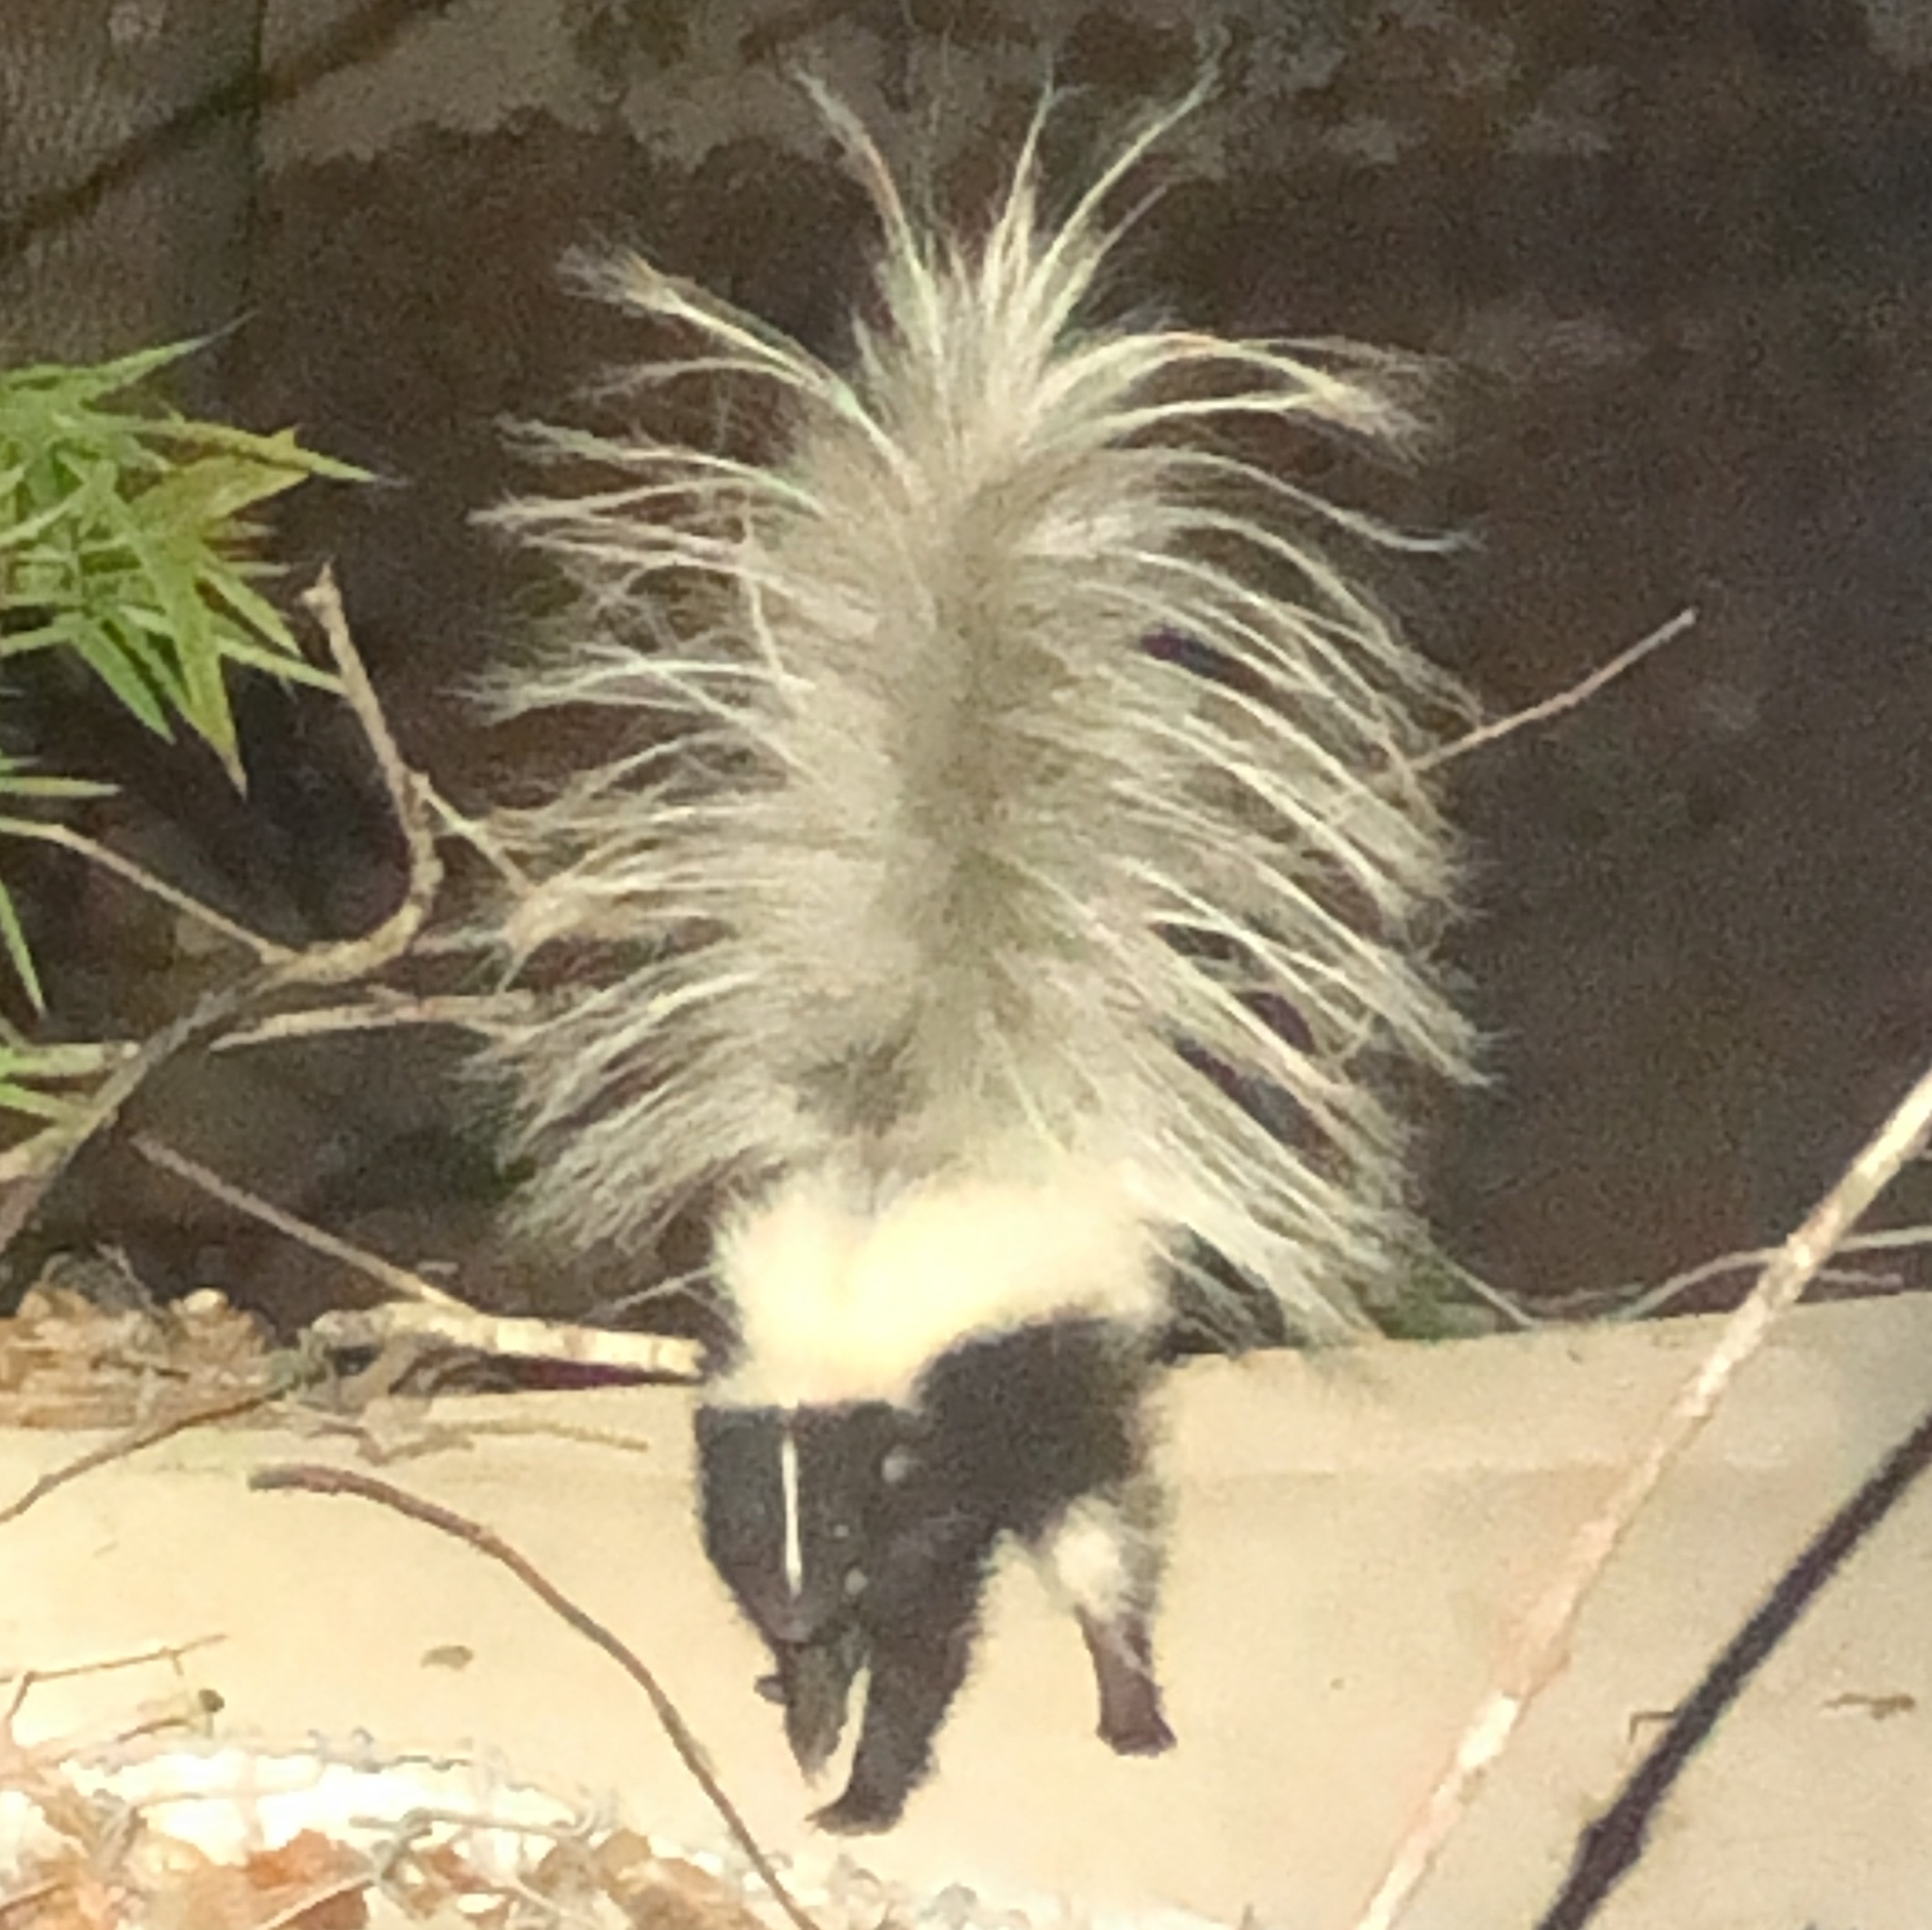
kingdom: Animalia
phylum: Chordata
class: Mammalia
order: Carnivora
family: Mephitidae
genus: Mephitis
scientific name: Mephitis mephitis
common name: Striped skunk
